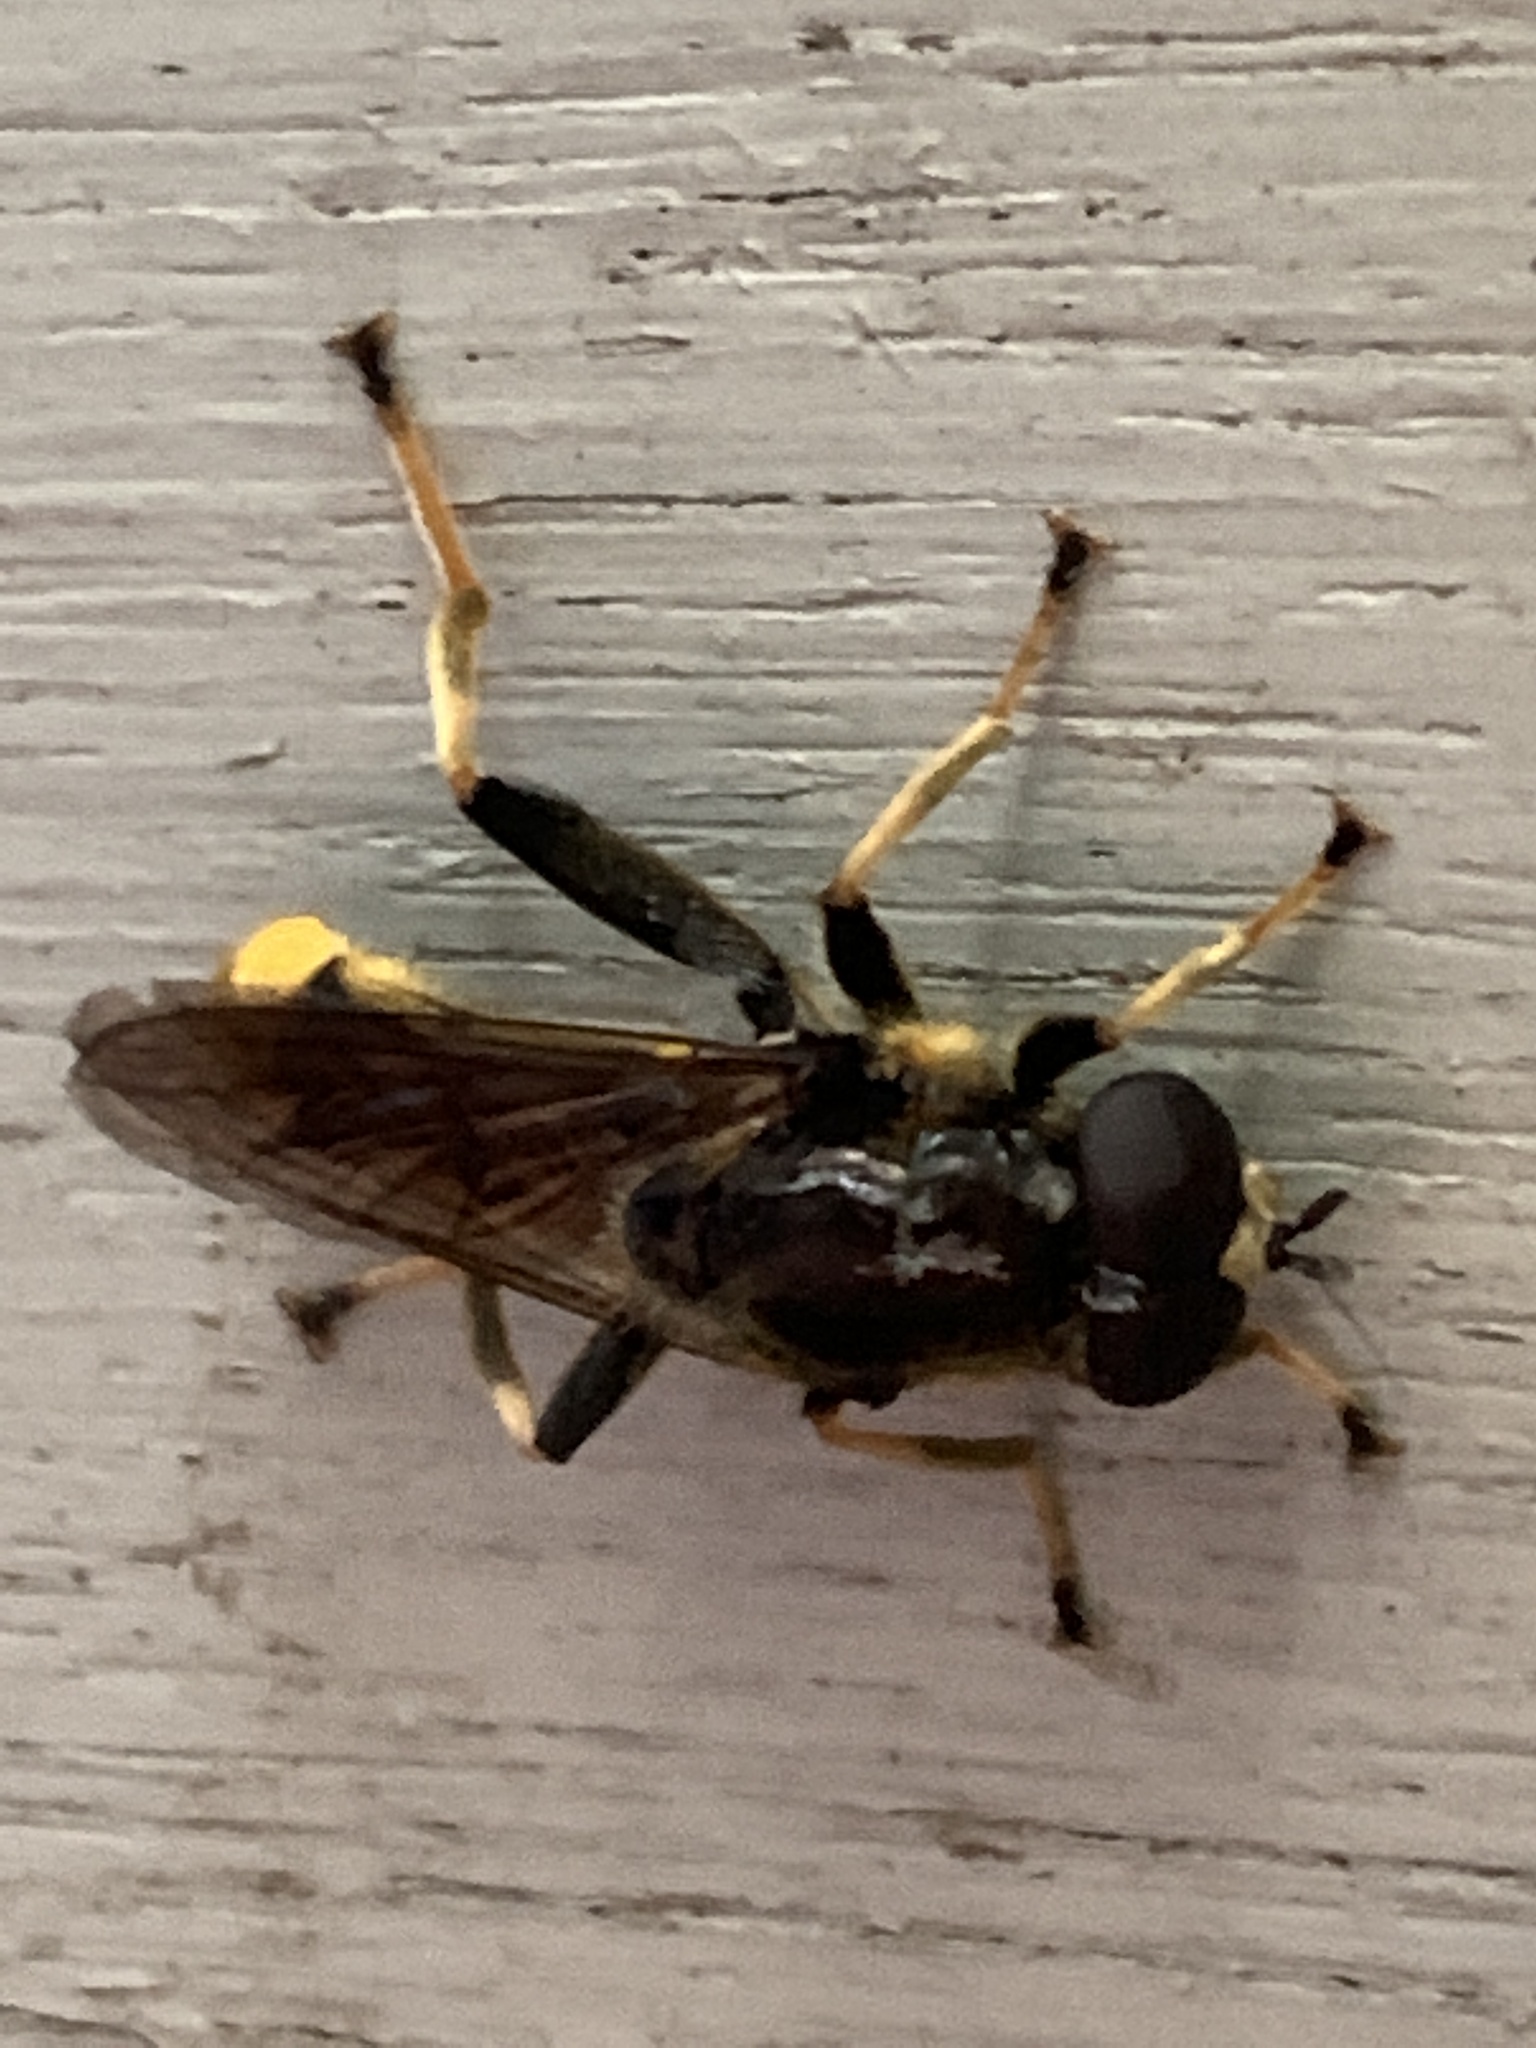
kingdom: Animalia
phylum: Arthropoda
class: Insecta
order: Diptera
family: Syrphidae
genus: Xylota
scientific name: Xylota sylvarum
